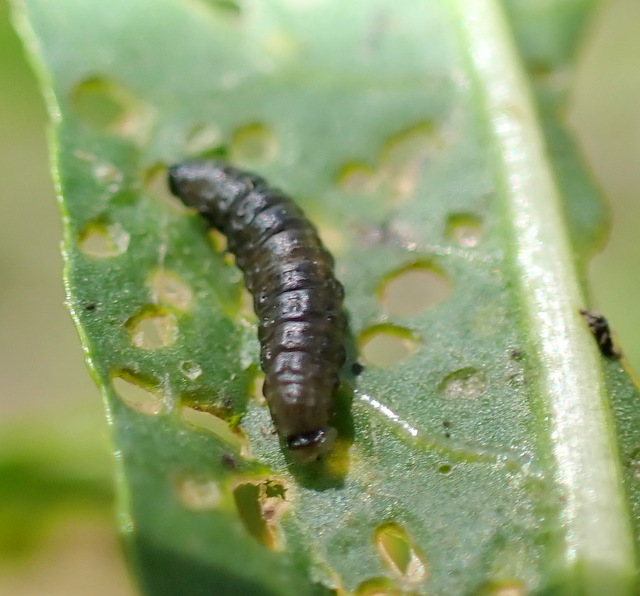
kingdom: Animalia
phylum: Arthropoda
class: Insecta
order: Coleoptera
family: Chrysomelidae
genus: Agasicles
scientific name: Agasicles hygrophila
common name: Alligatorweed flea beetle
